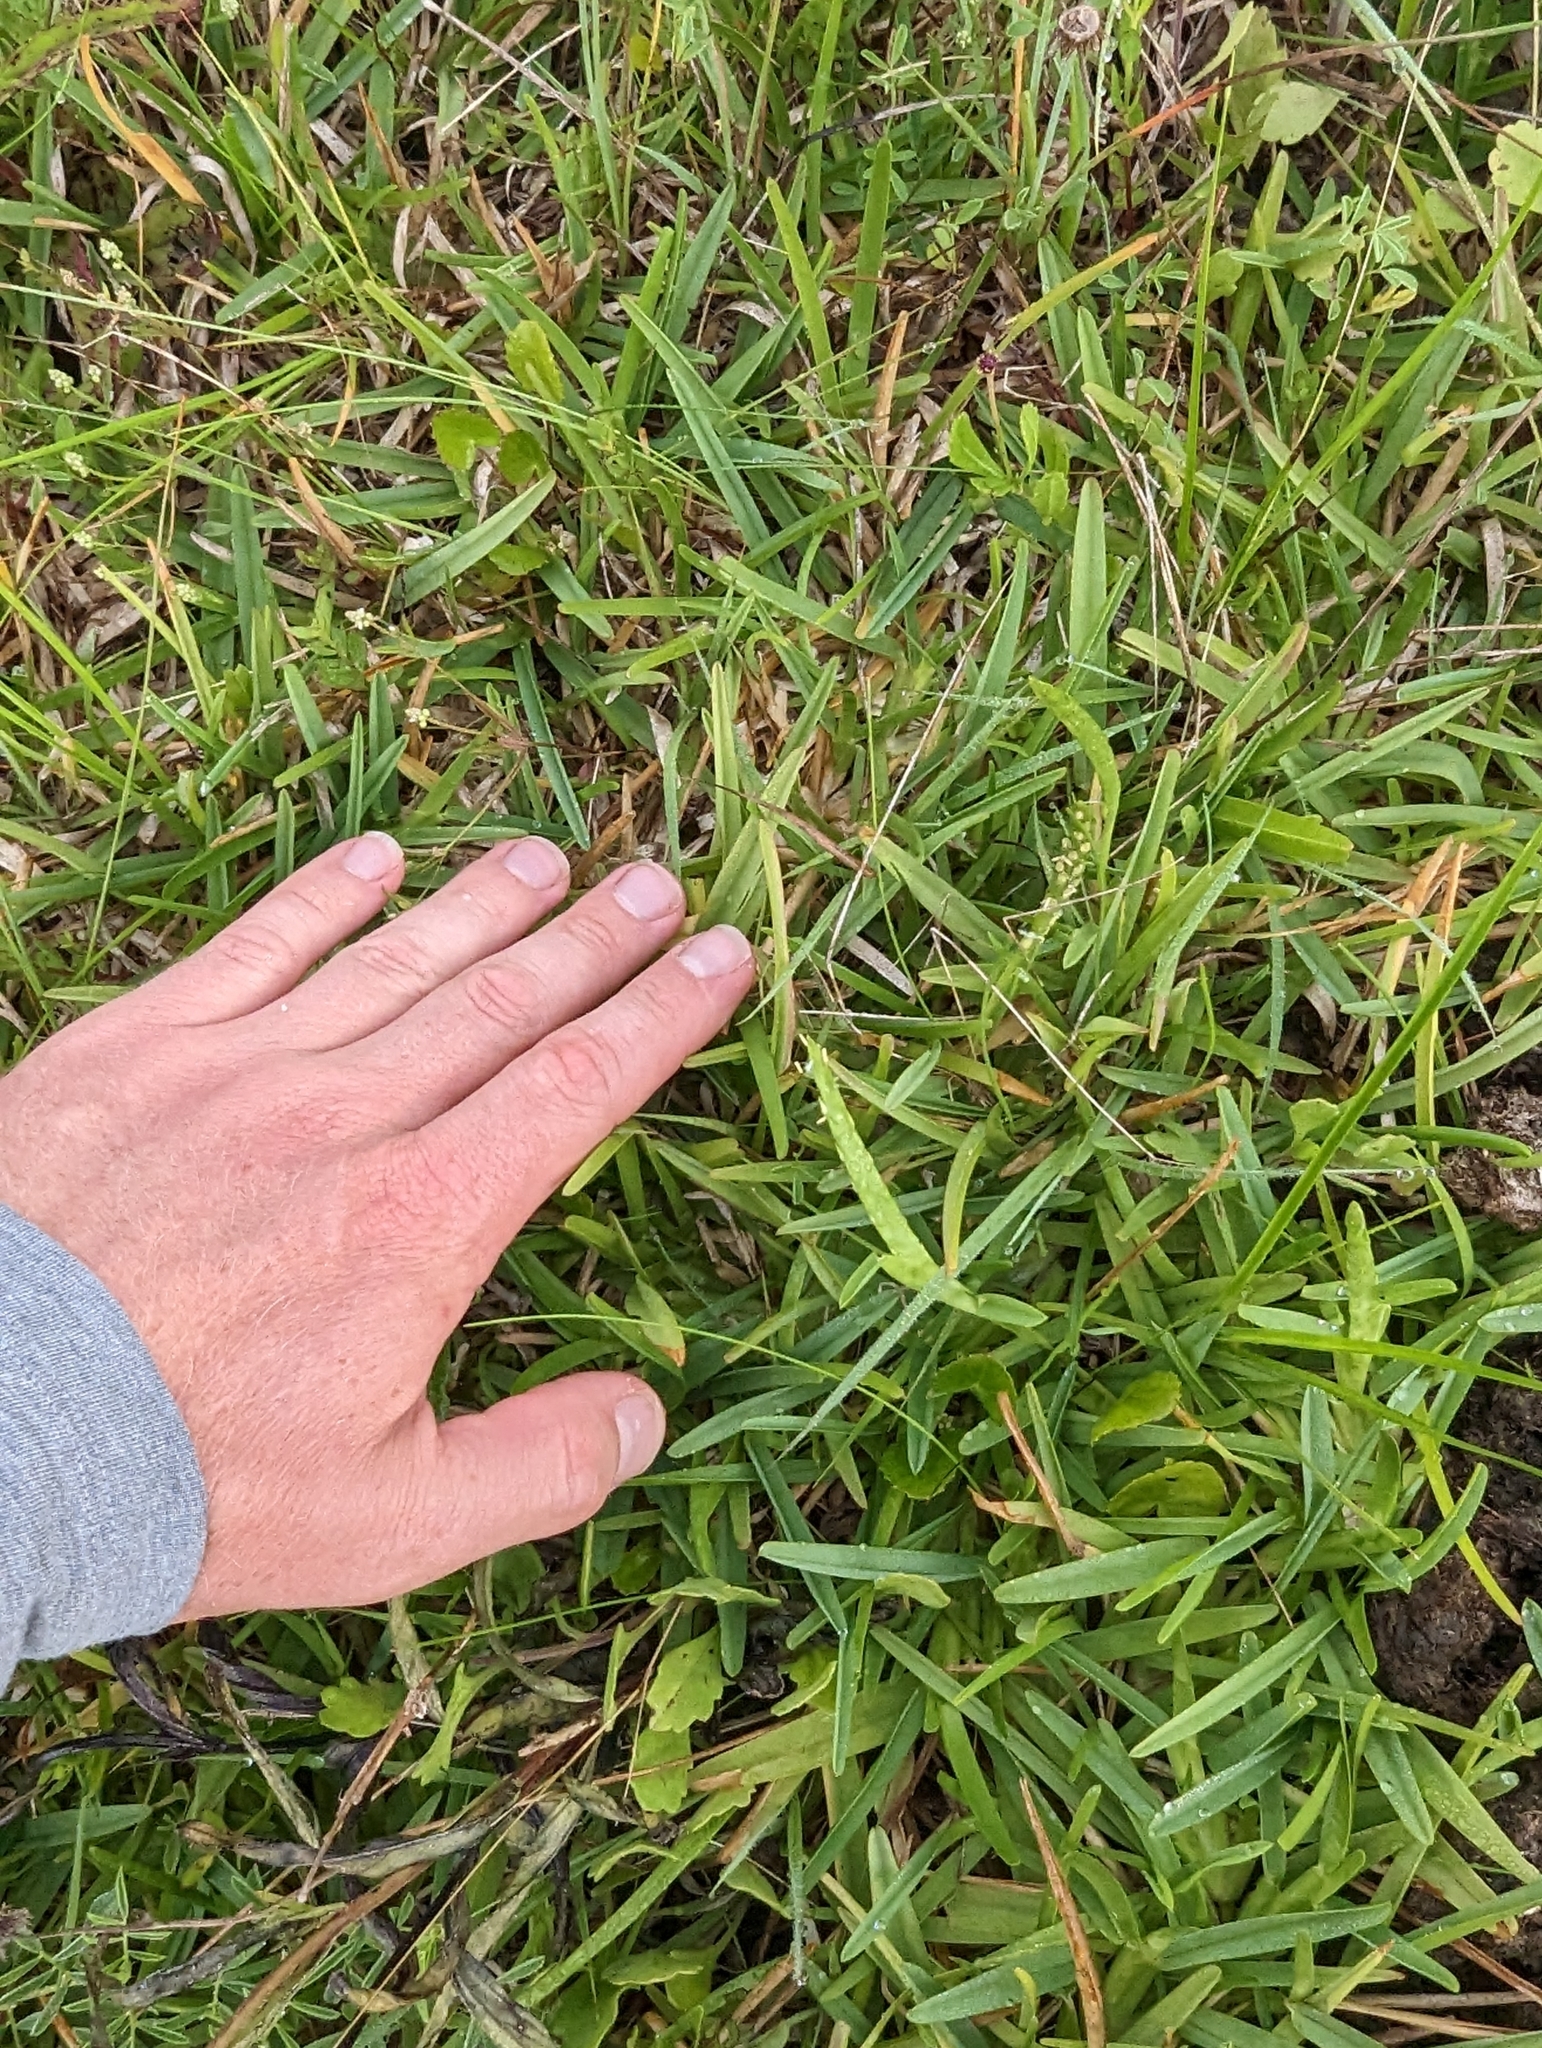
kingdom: Plantae
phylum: Tracheophyta
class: Liliopsida
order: Poales
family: Poaceae
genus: Stenotaphrum
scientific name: Stenotaphrum secundatum
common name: St. augustine grass
